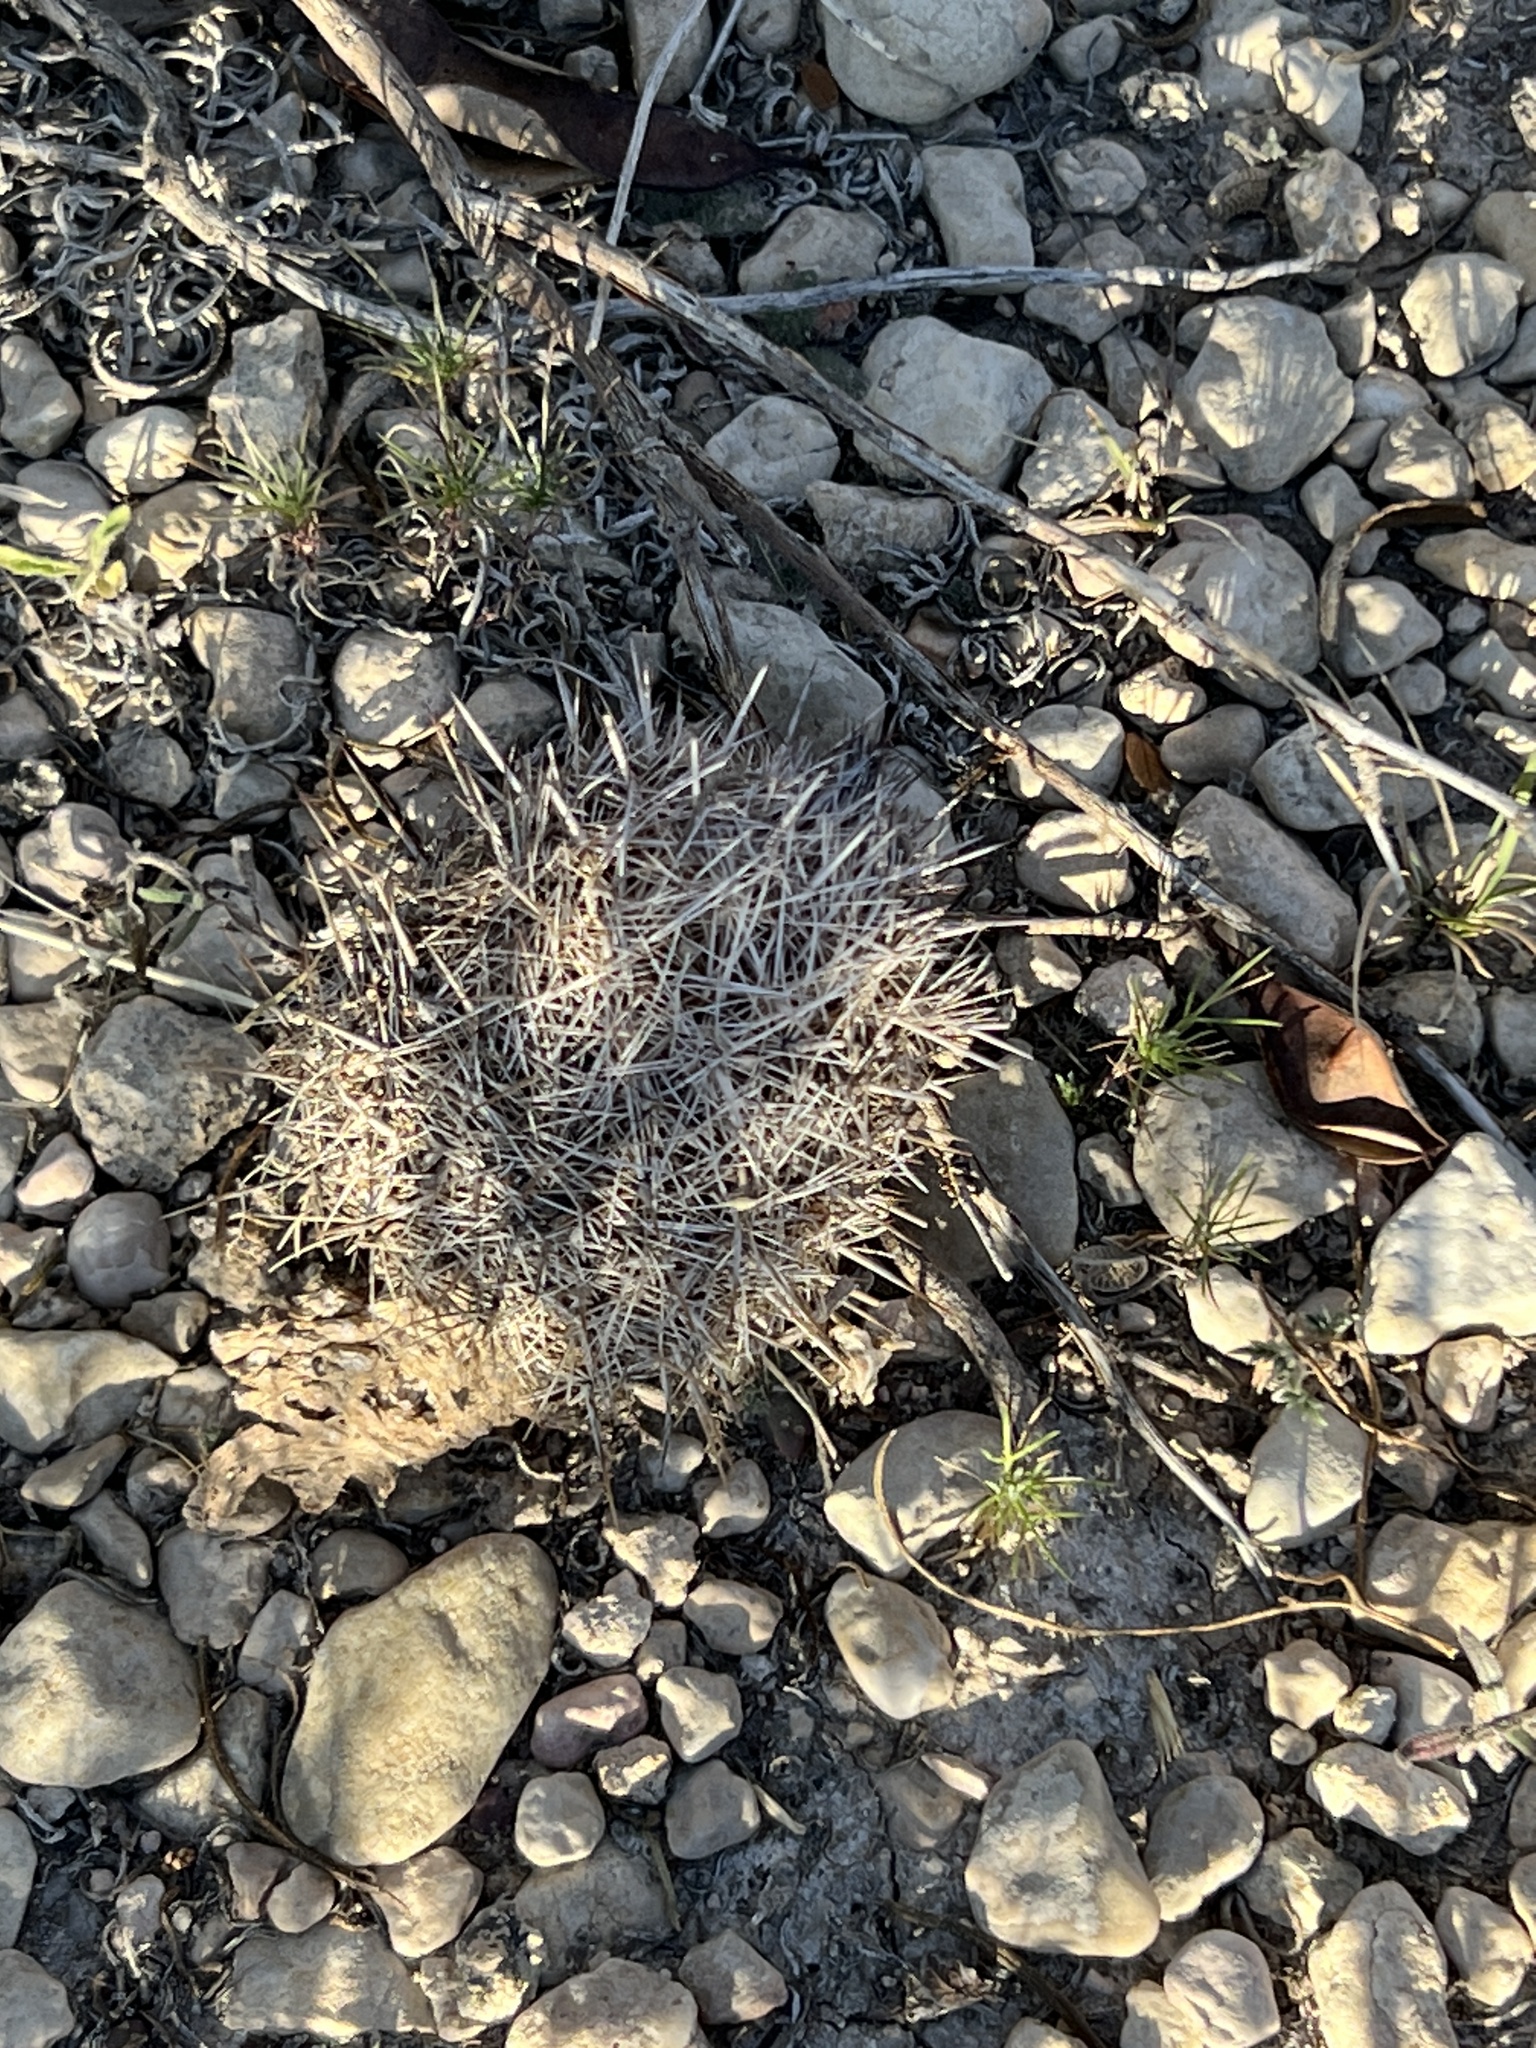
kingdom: Plantae
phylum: Tracheophyta
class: Magnoliopsida
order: Caryophyllales
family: Cactaceae
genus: Coryphantha
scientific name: Coryphantha echinus
